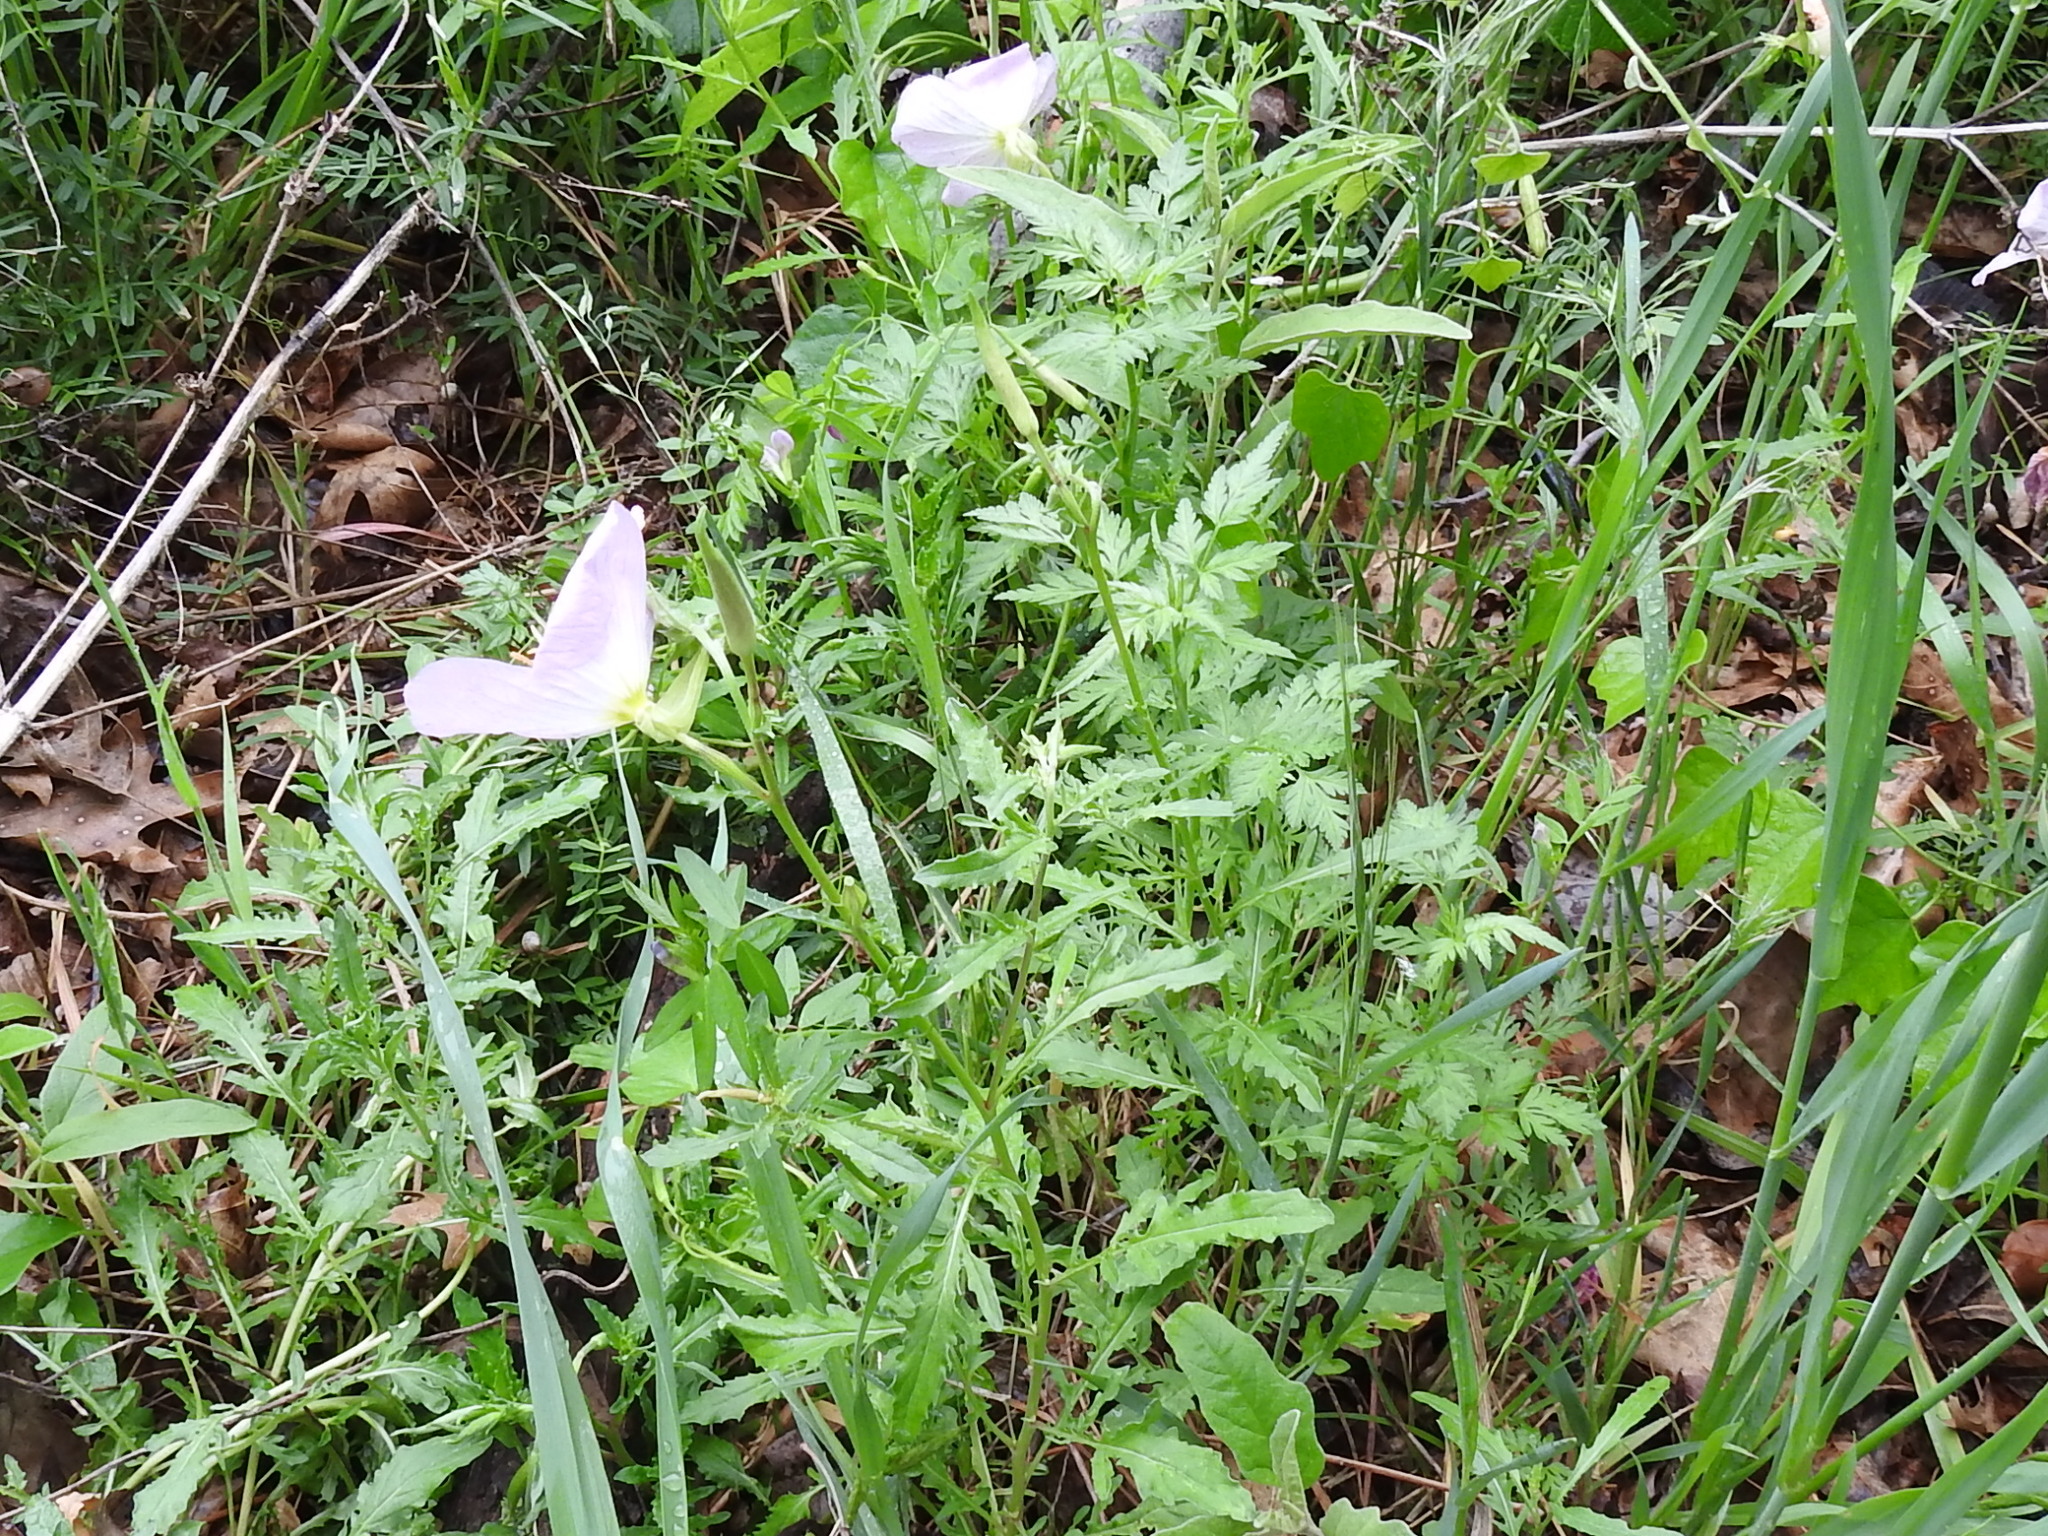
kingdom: Plantae
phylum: Tracheophyta
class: Magnoliopsida
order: Myrtales
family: Onagraceae
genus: Oenothera
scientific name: Oenothera speciosa
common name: White evening-primrose
